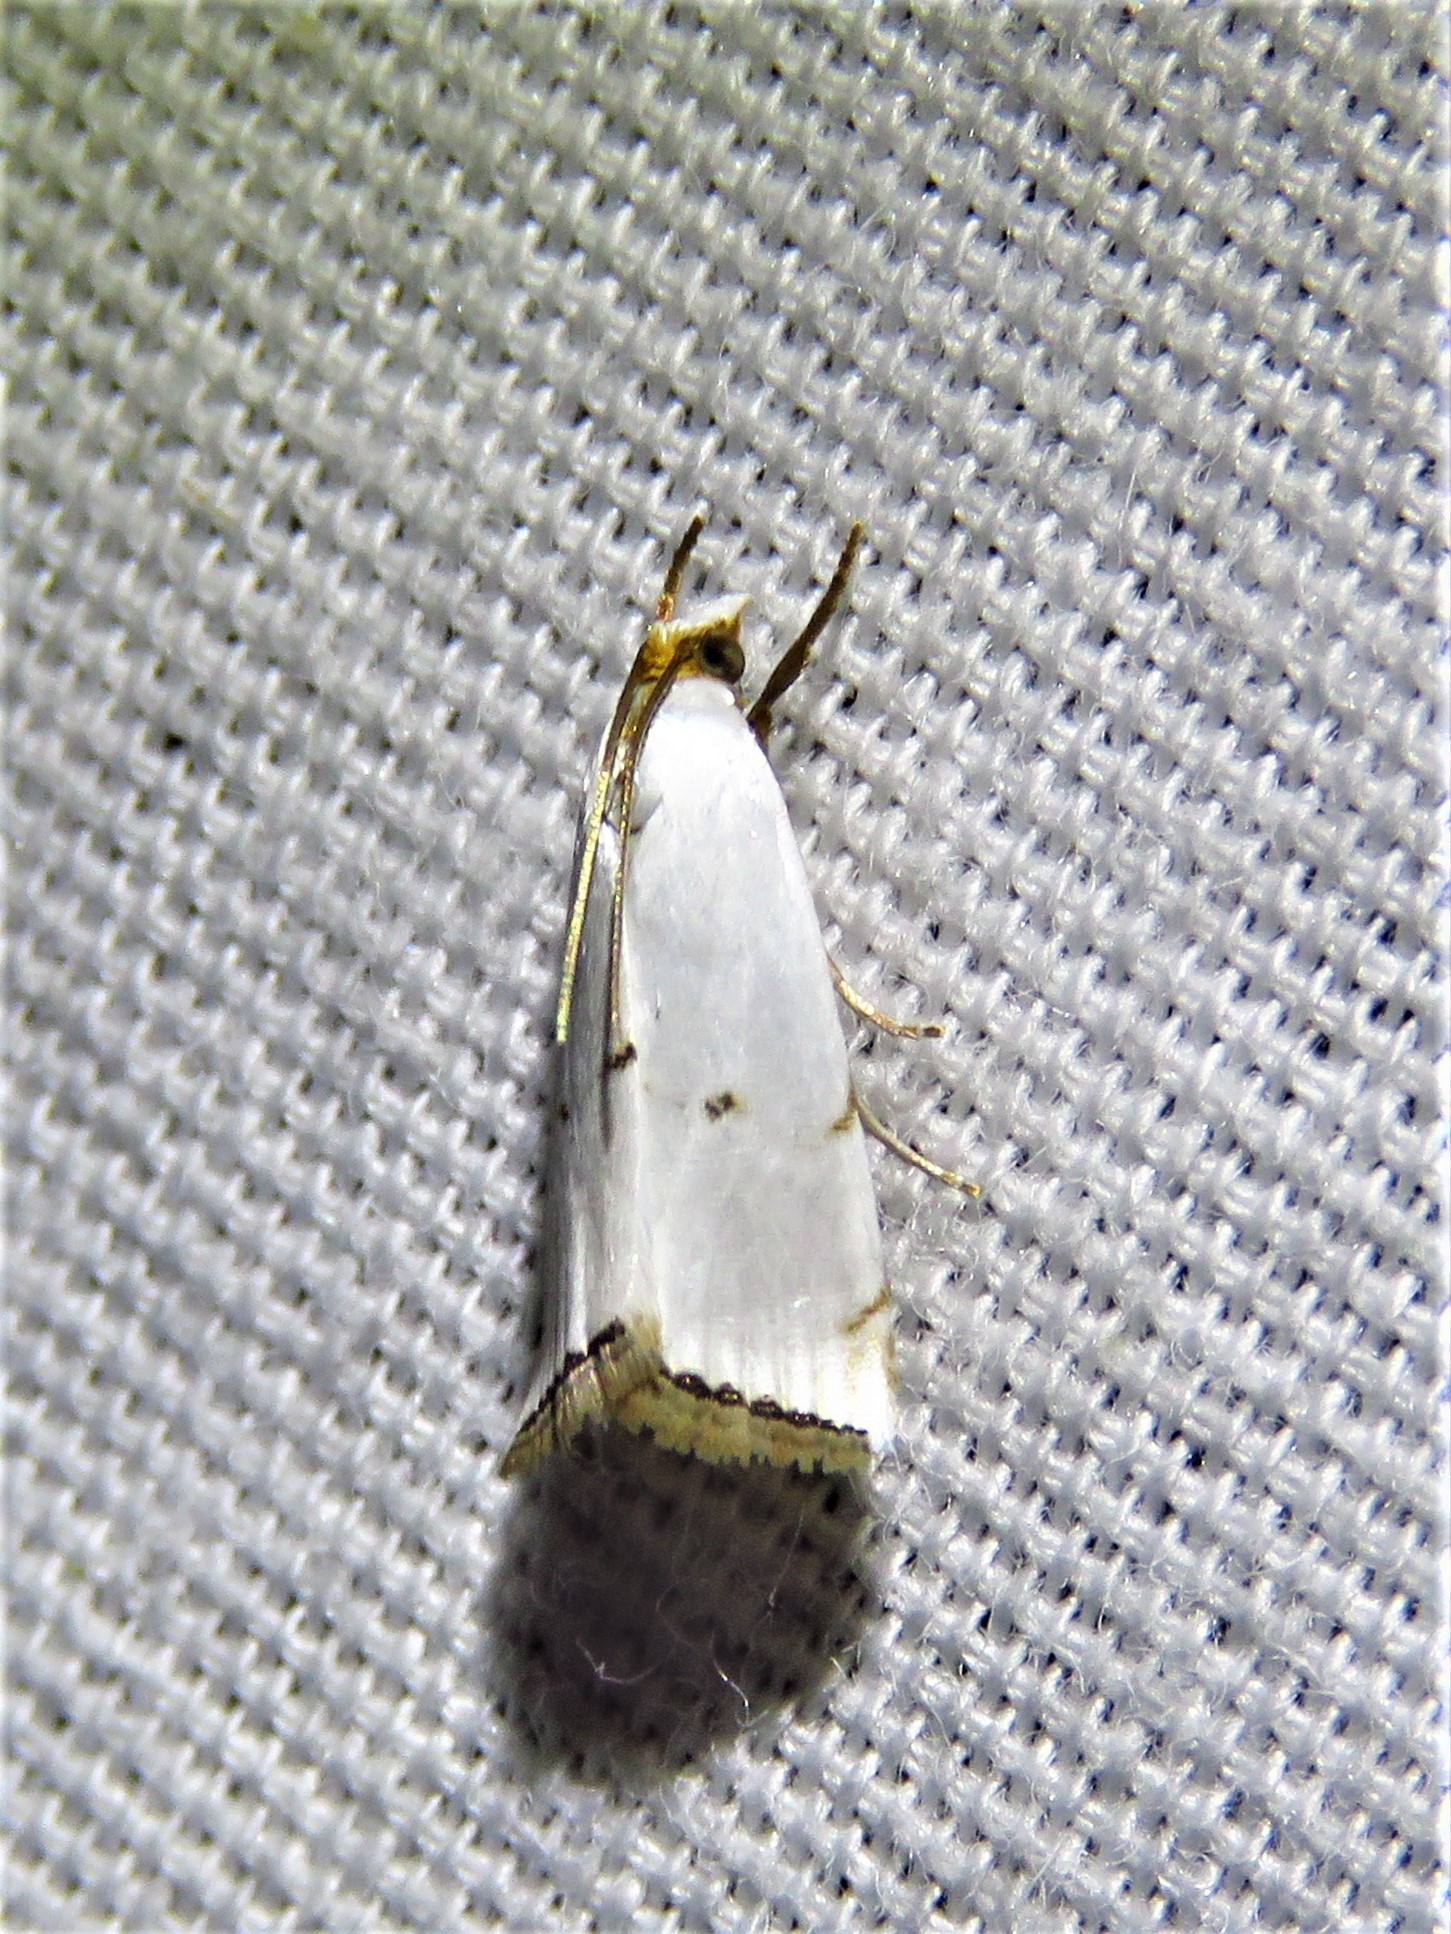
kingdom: Animalia
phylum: Arthropoda
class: Insecta
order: Lepidoptera
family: Crambidae
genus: Argyria
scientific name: Argyria pusillalis
